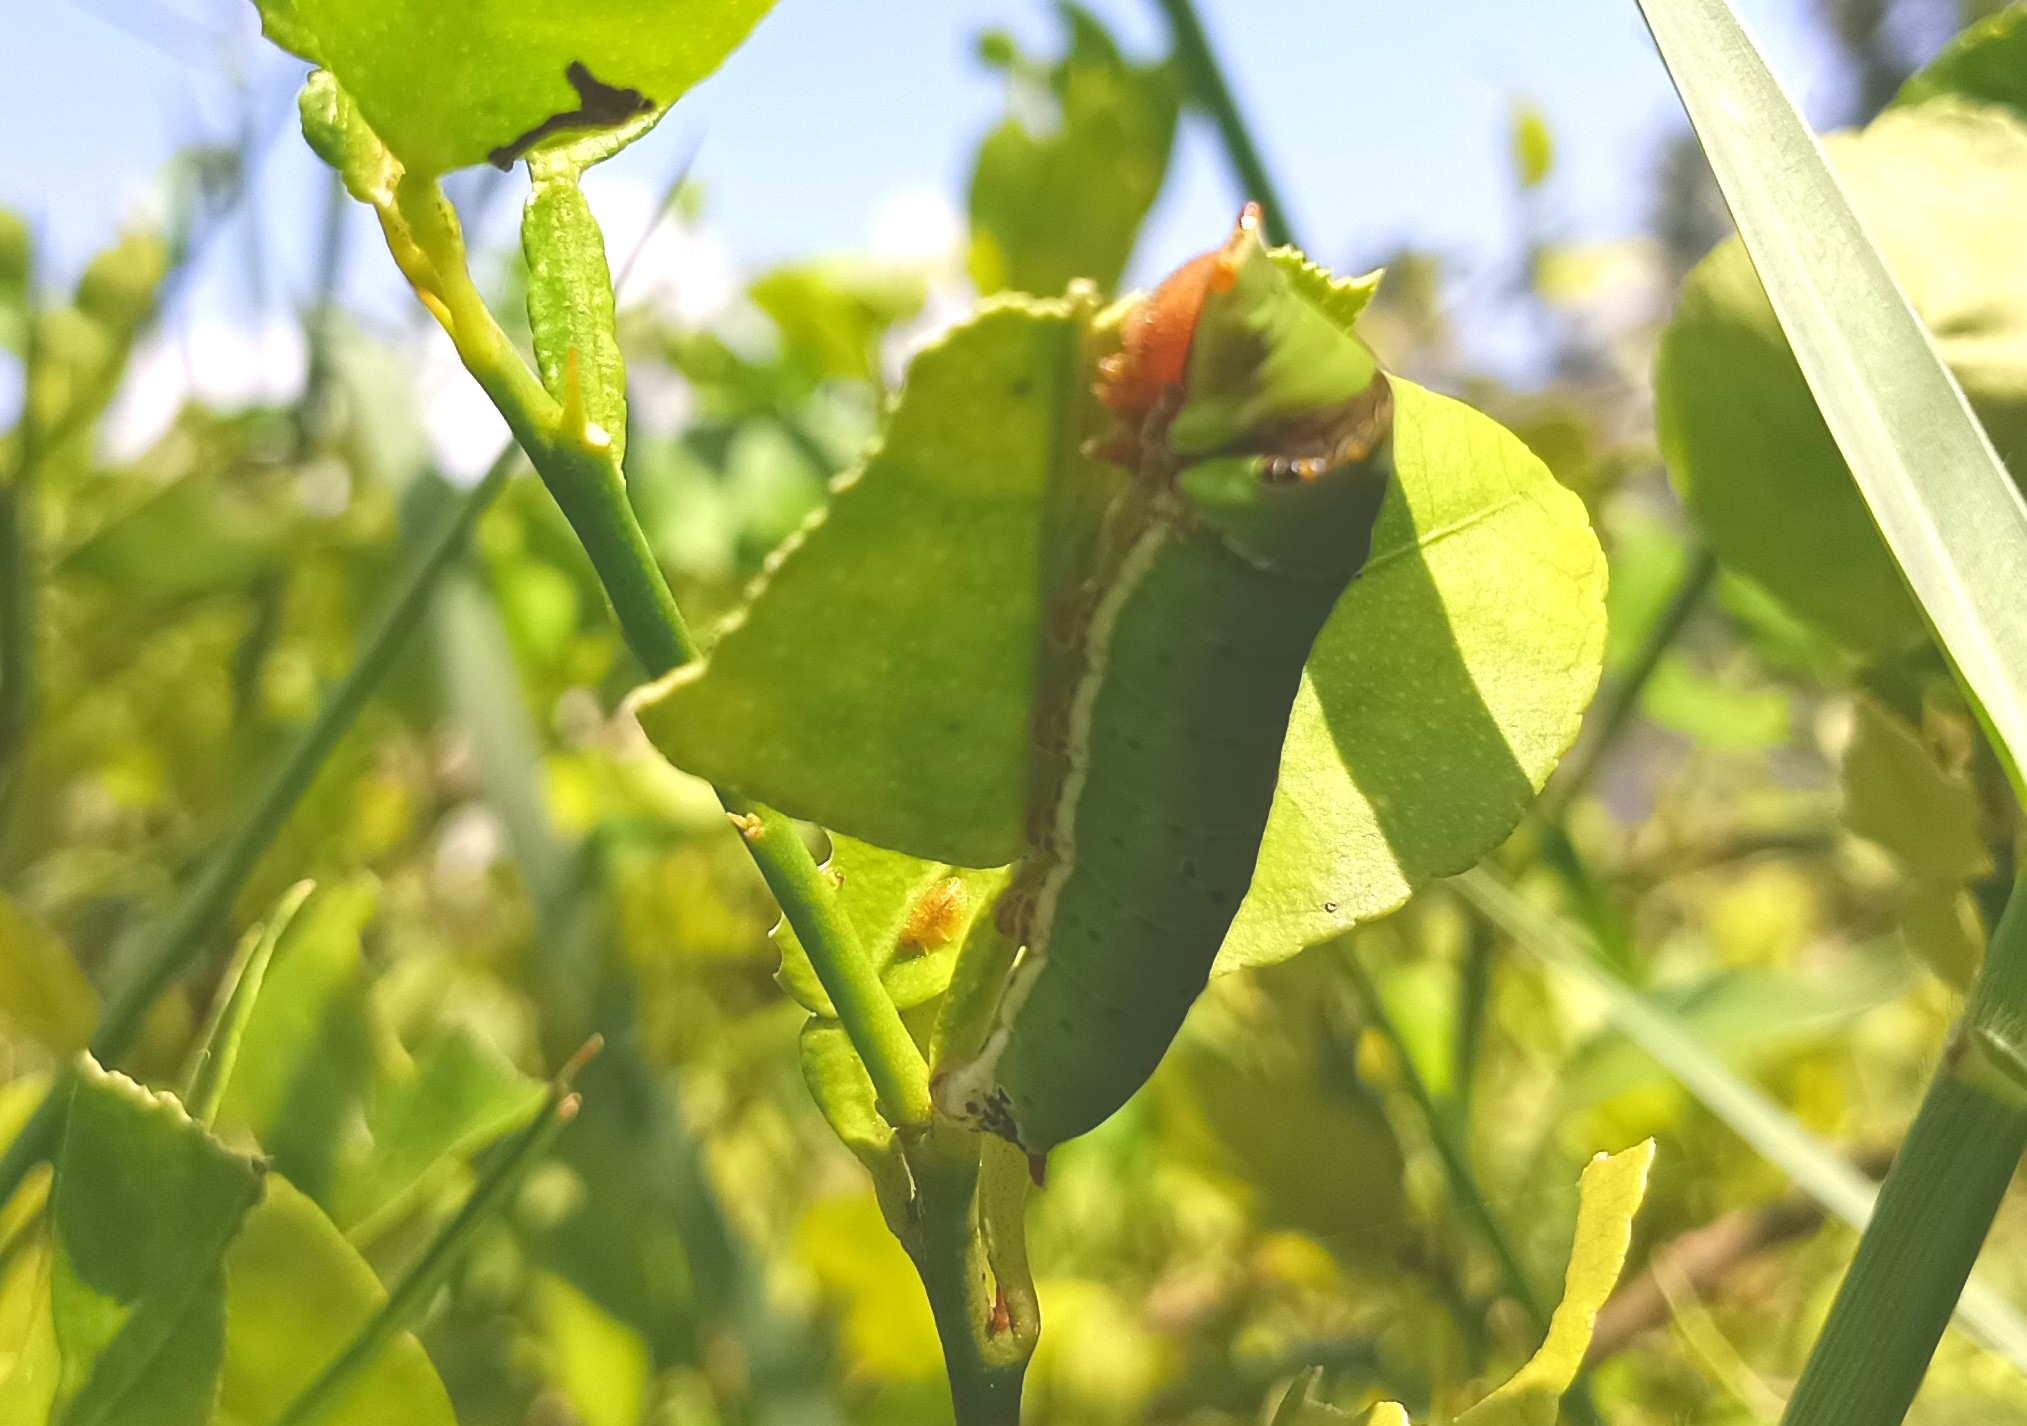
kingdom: Animalia
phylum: Arthropoda
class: Insecta
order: Lepidoptera
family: Papilionidae
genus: Papilio
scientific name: Papilio demoleus
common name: Lime butterfly
